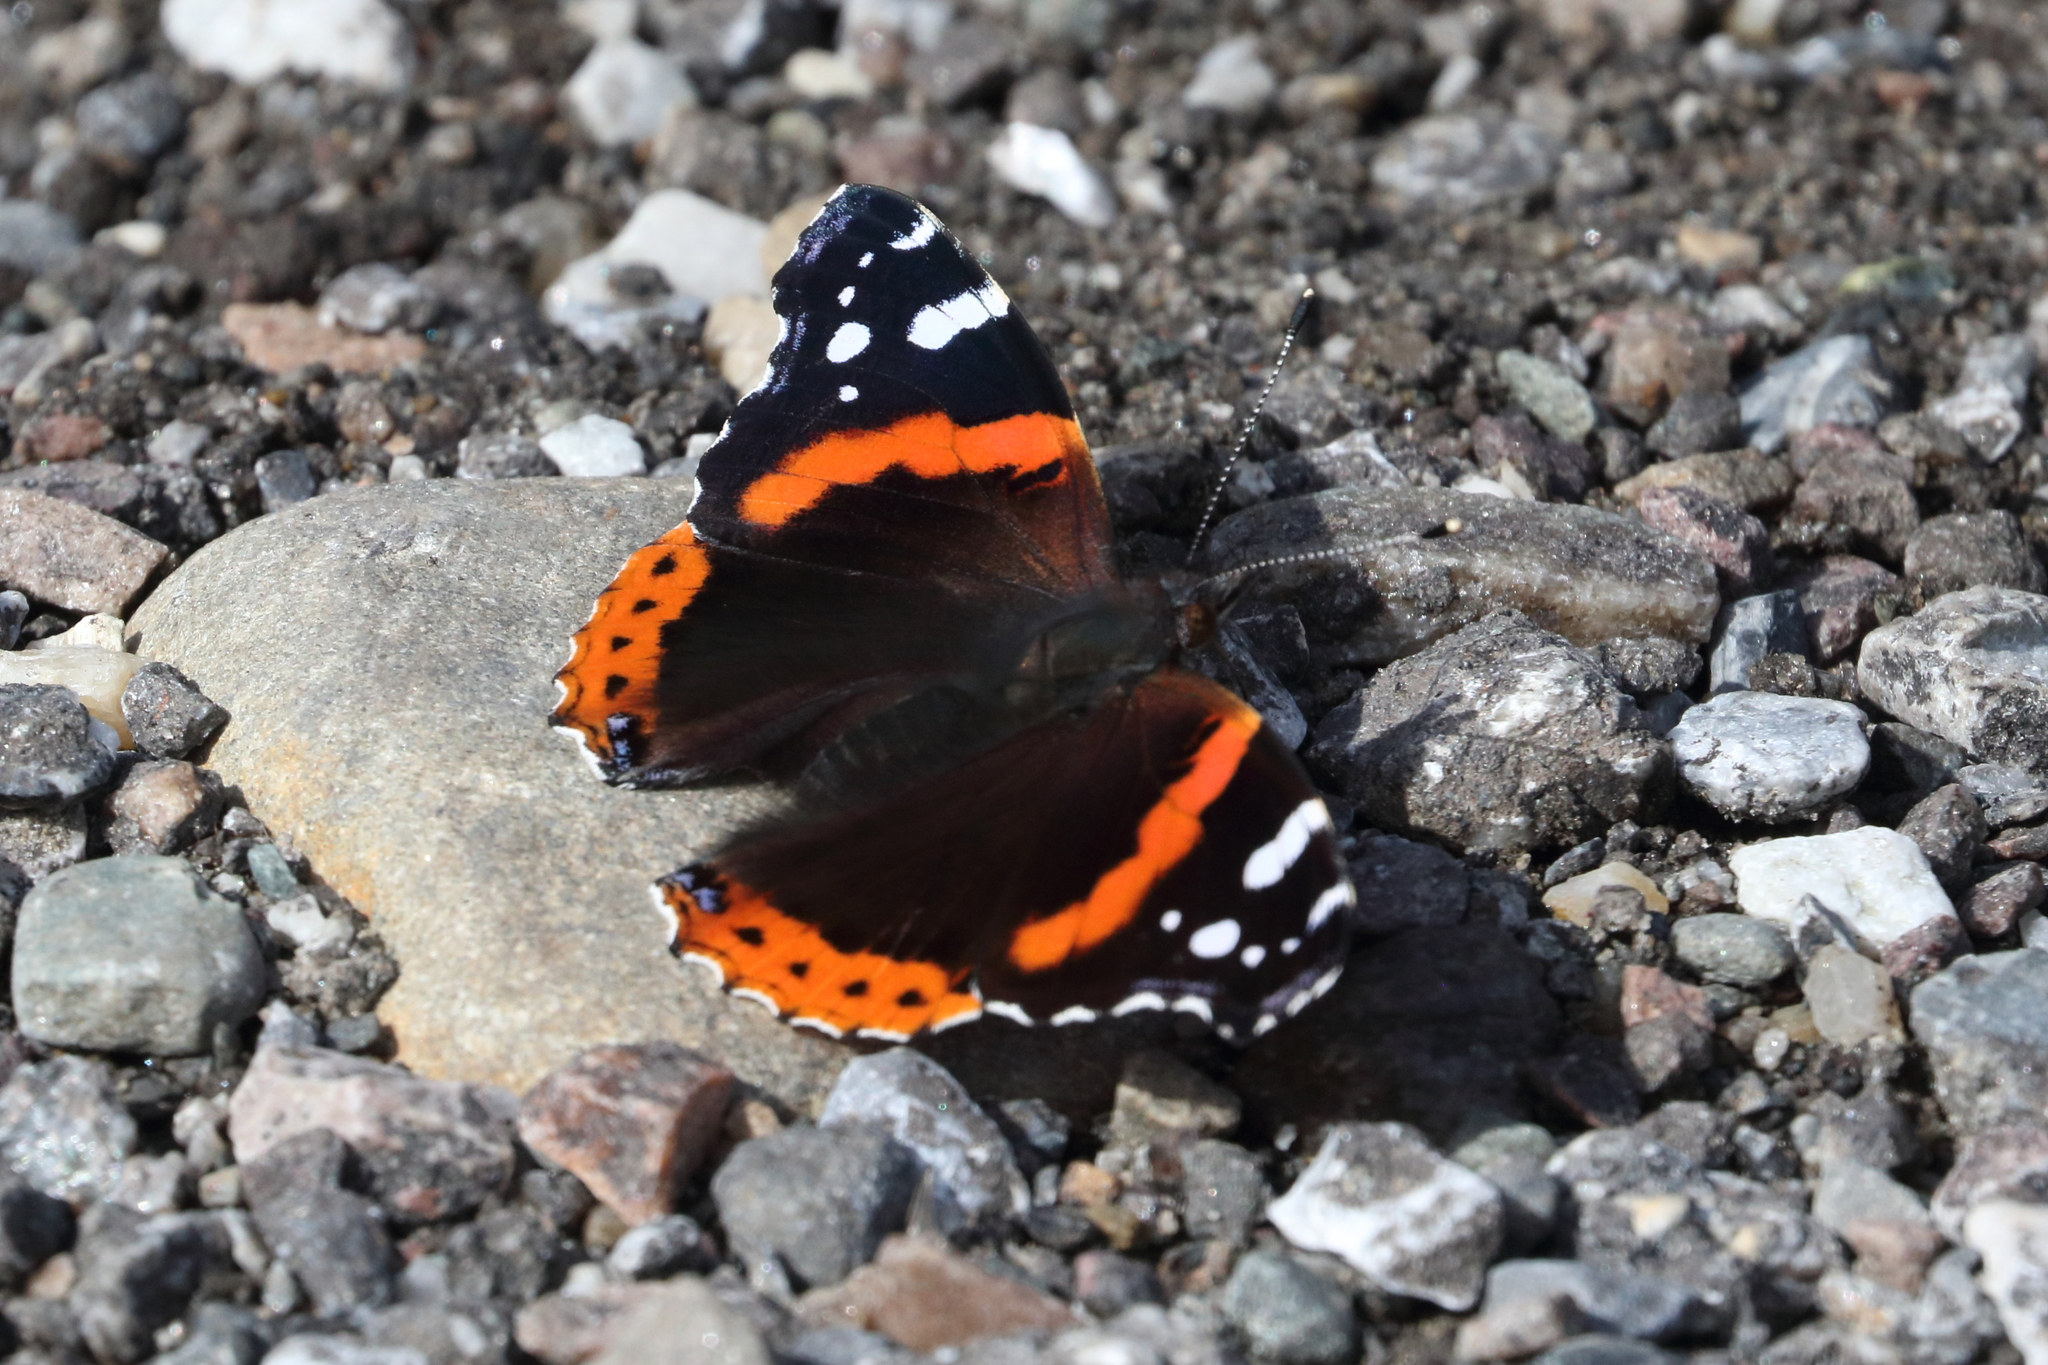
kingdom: Animalia
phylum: Arthropoda
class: Insecta
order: Lepidoptera
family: Nymphalidae
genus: Vanessa
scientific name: Vanessa atalanta
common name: Red admiral
